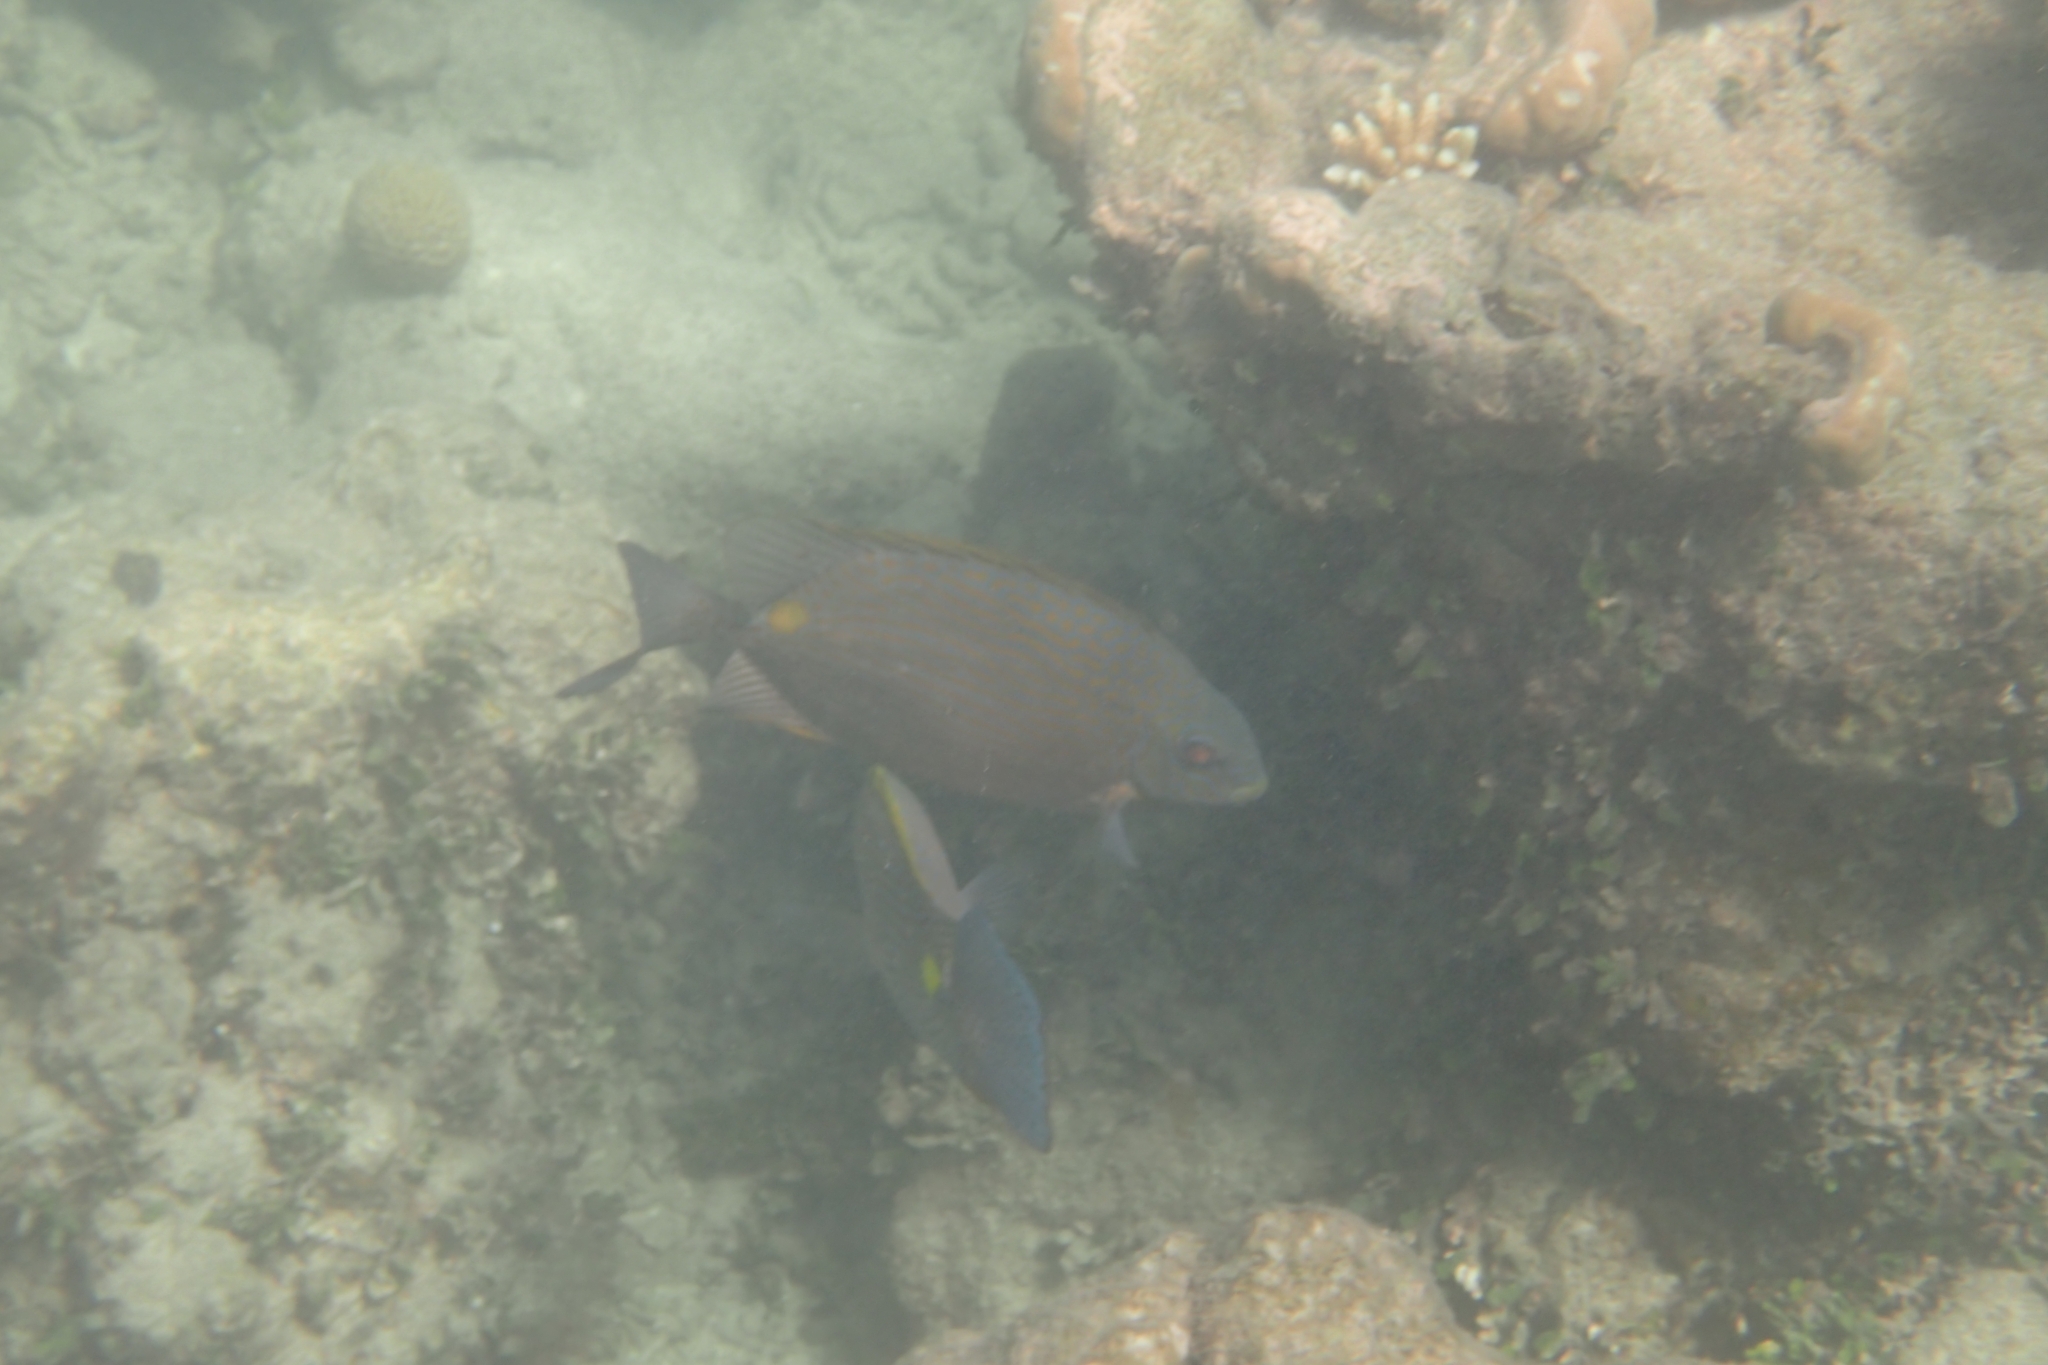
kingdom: Animalia
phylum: Chordata
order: Perciformes
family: Siganidae
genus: Siganus
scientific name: Siganus lineatus
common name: Lined rabbitfish
